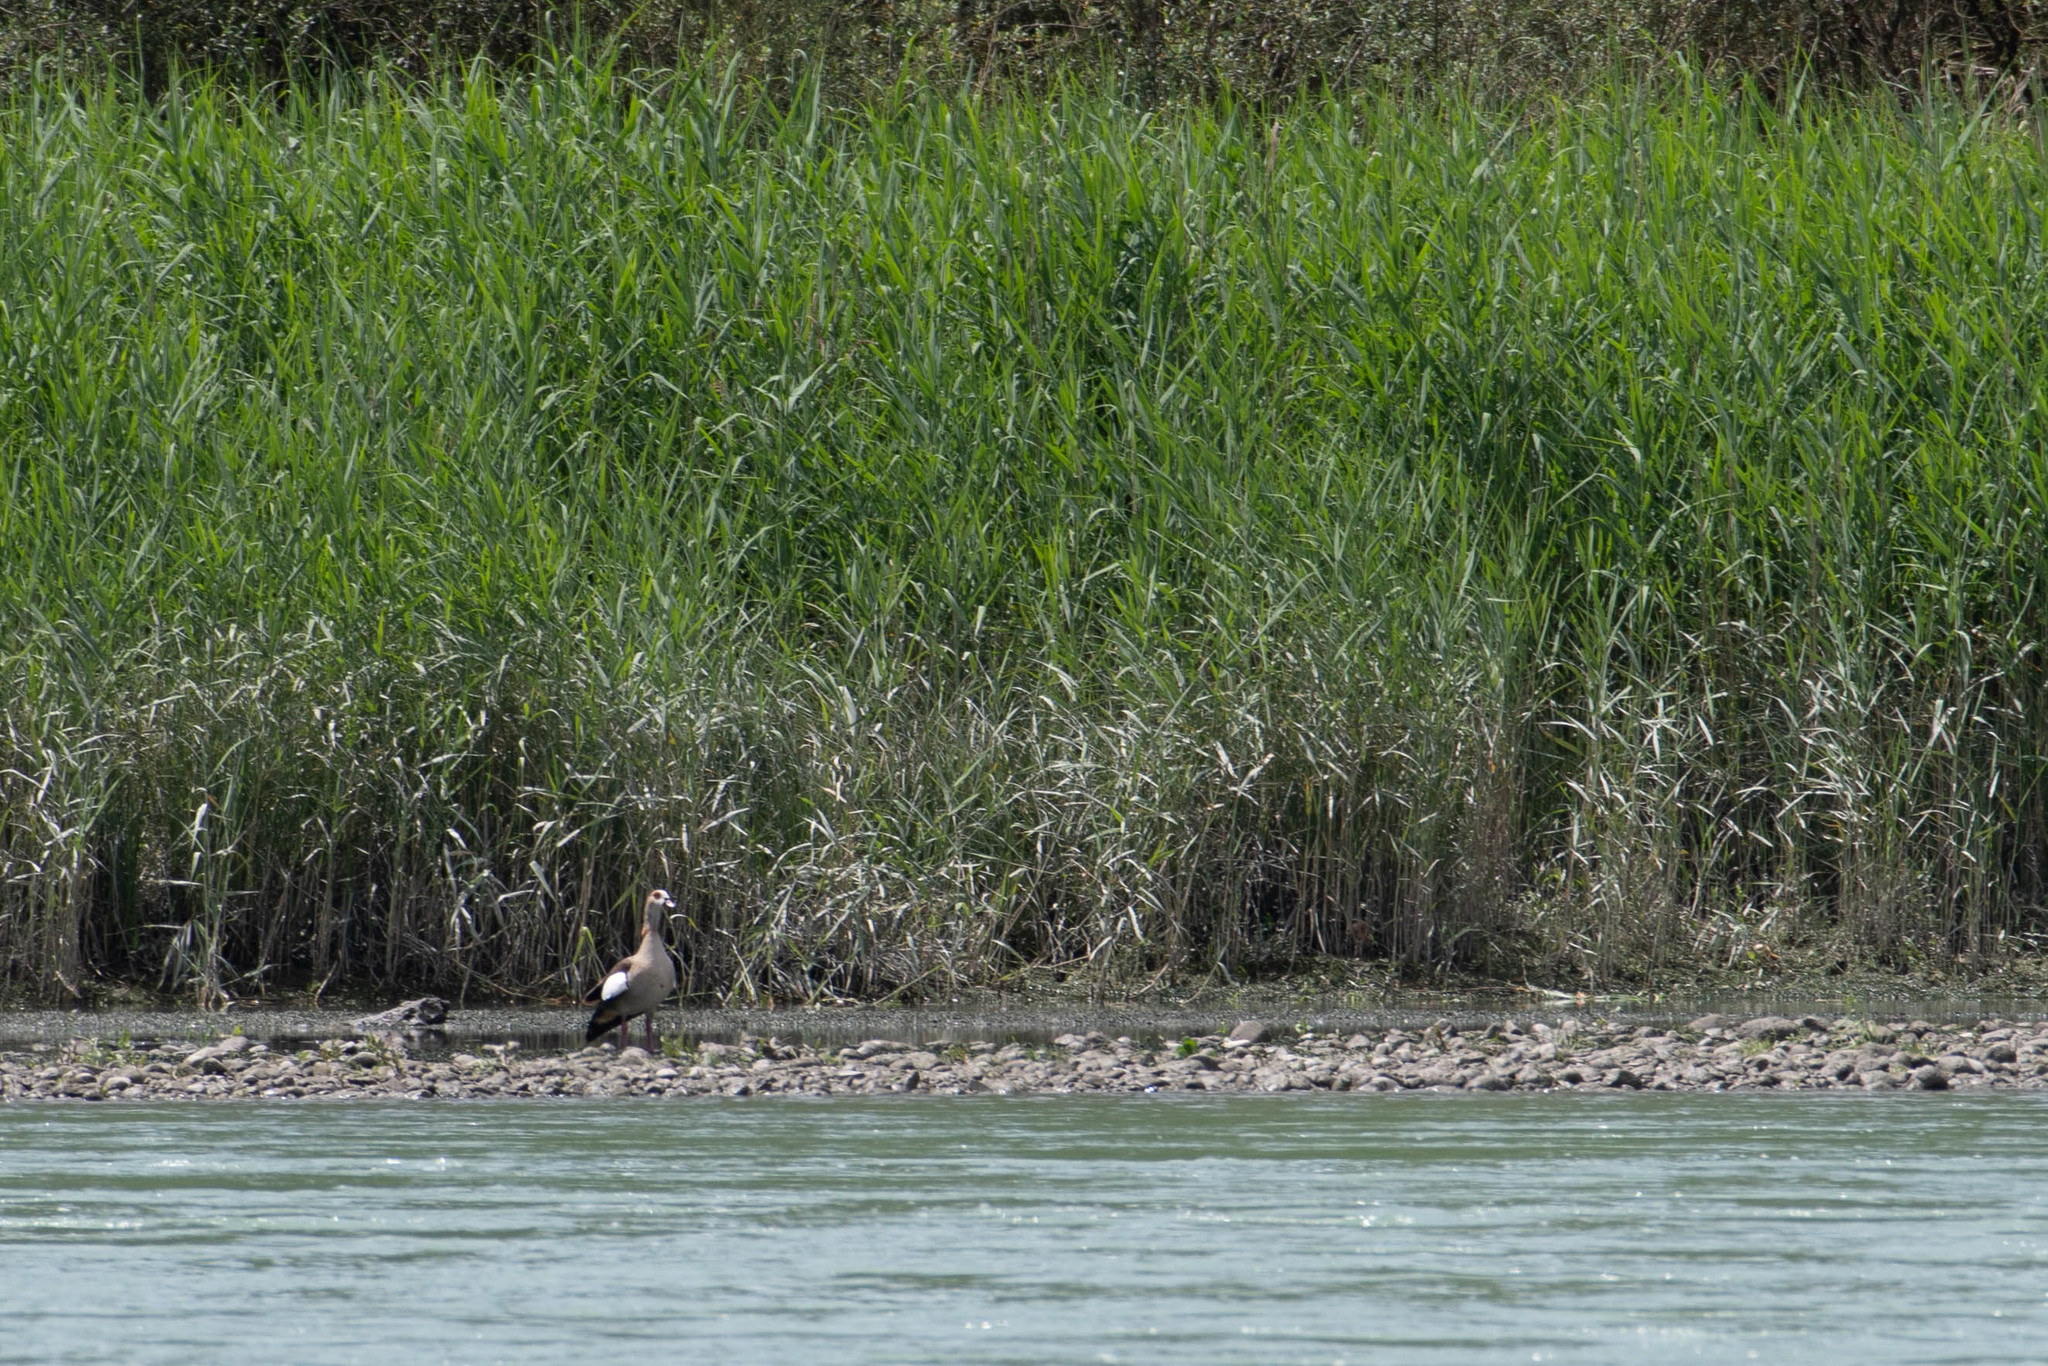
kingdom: Animalia
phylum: Chordata
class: Aves
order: Anseriformes
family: Anatidae
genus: Alopochen
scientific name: Alopochen aegyptiaca
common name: Egyptian goose
